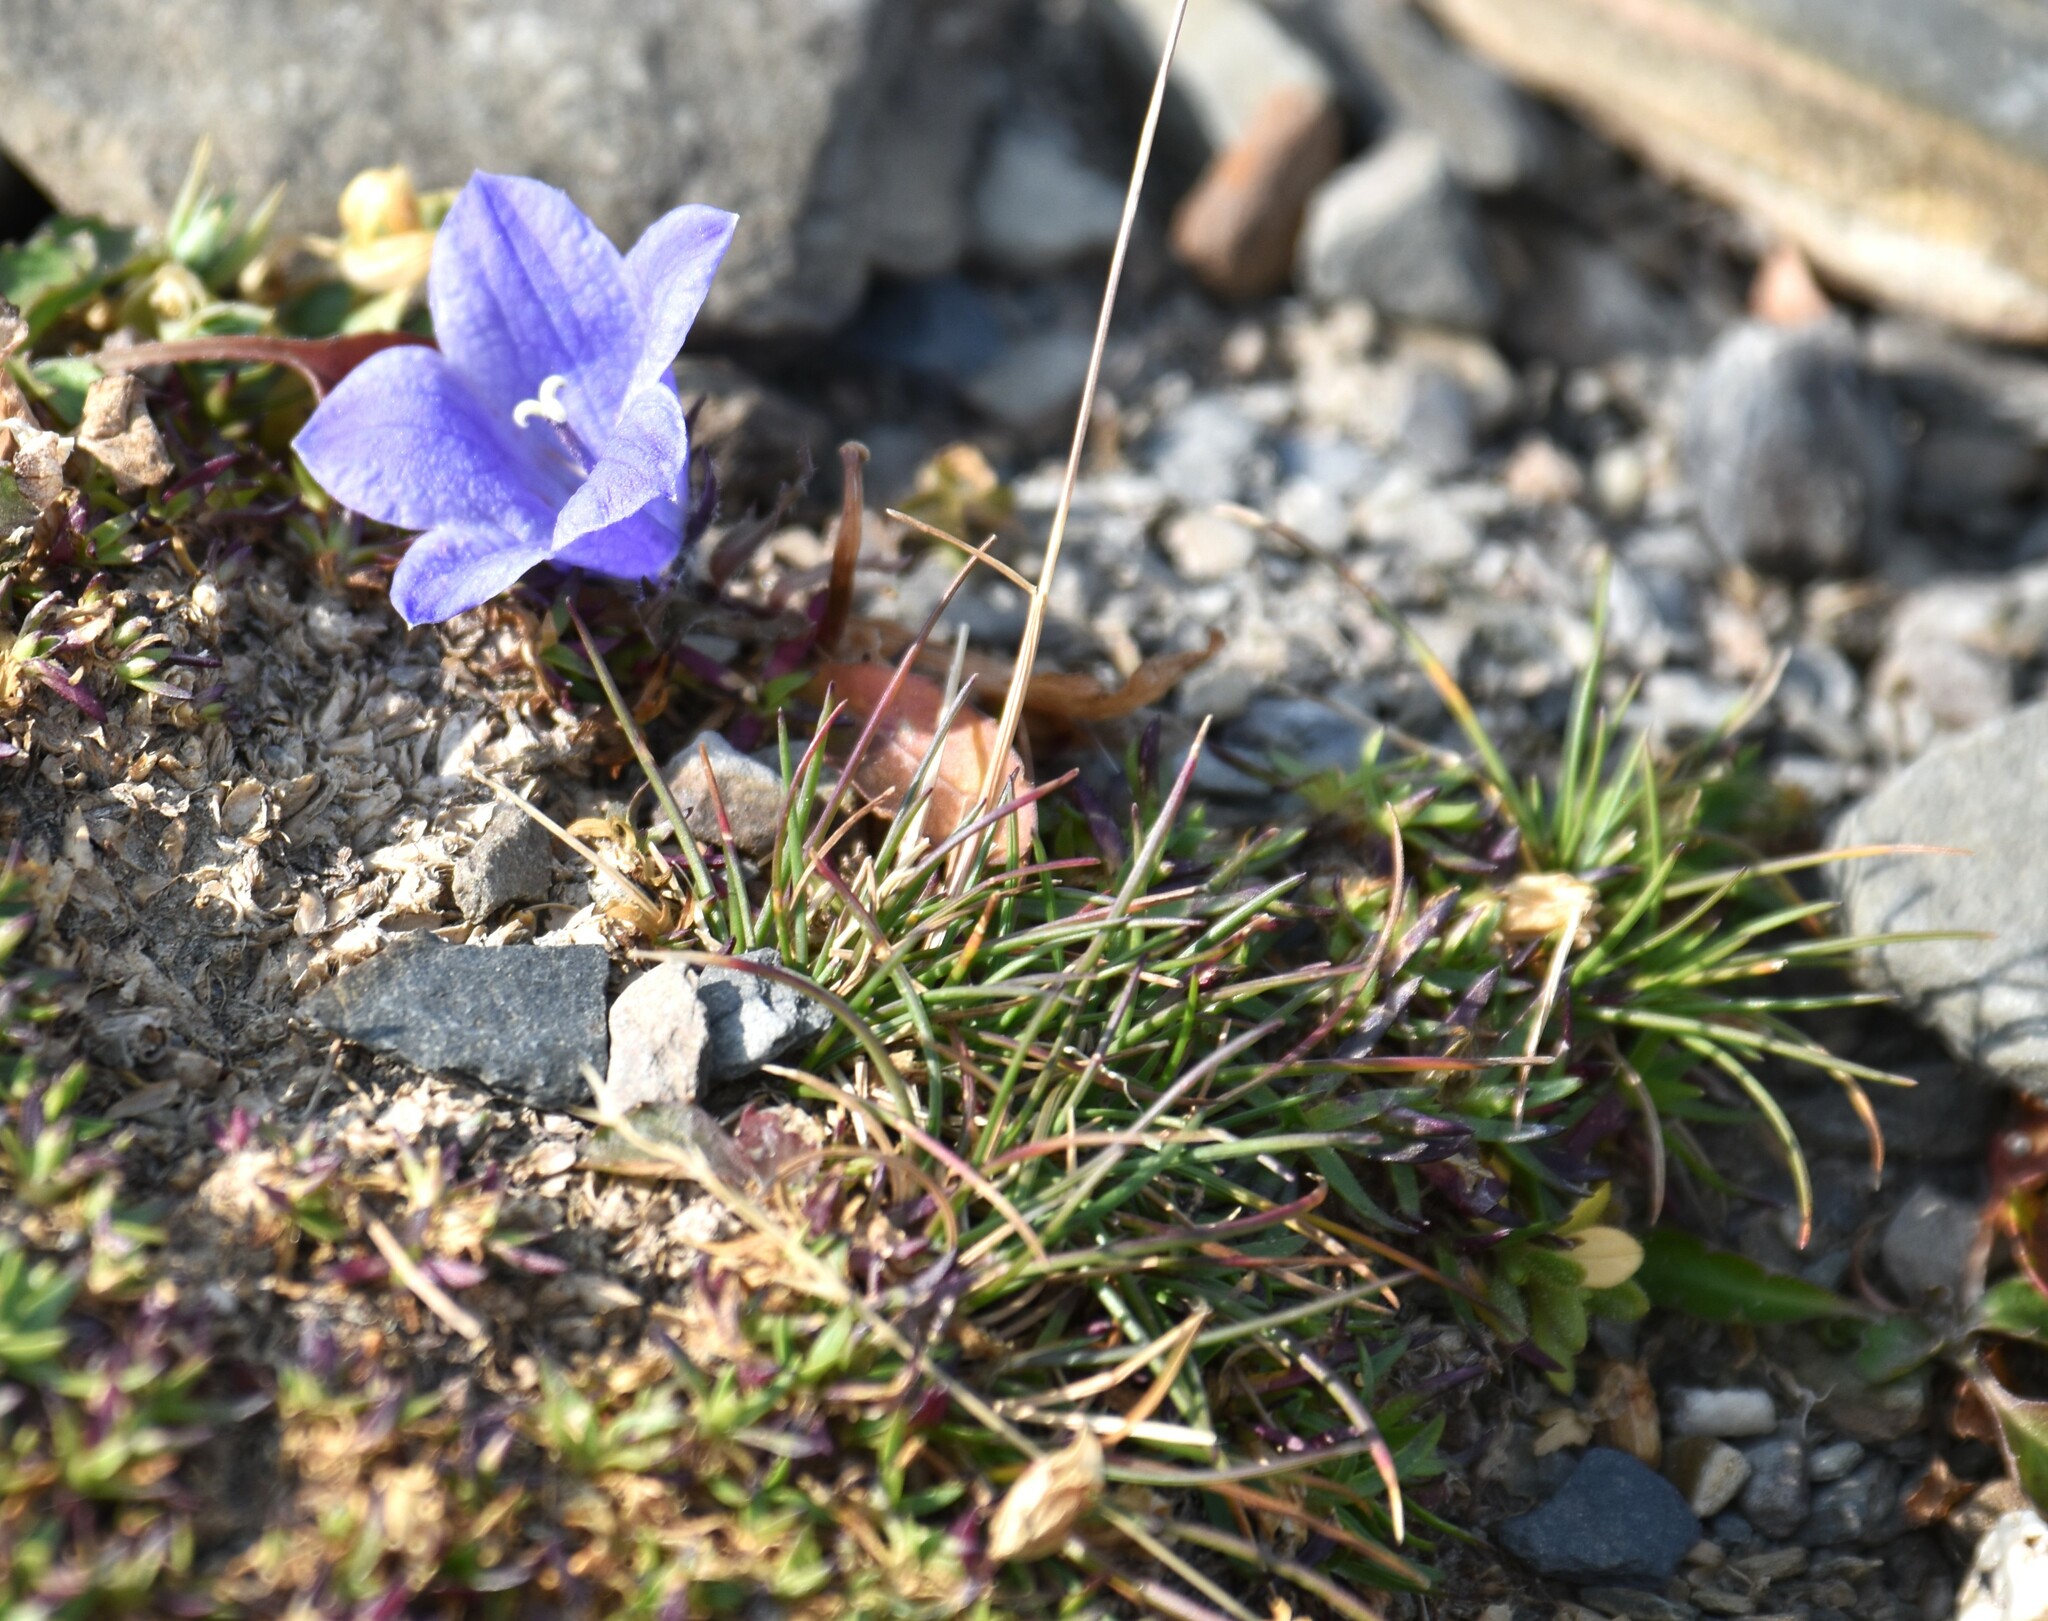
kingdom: Plantae
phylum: Tracheophyta
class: Magnoliopsida
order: Asterales
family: Campanulaceae
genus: Campanula
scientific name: Campanula lasiocarpa
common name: Mountain harebell
